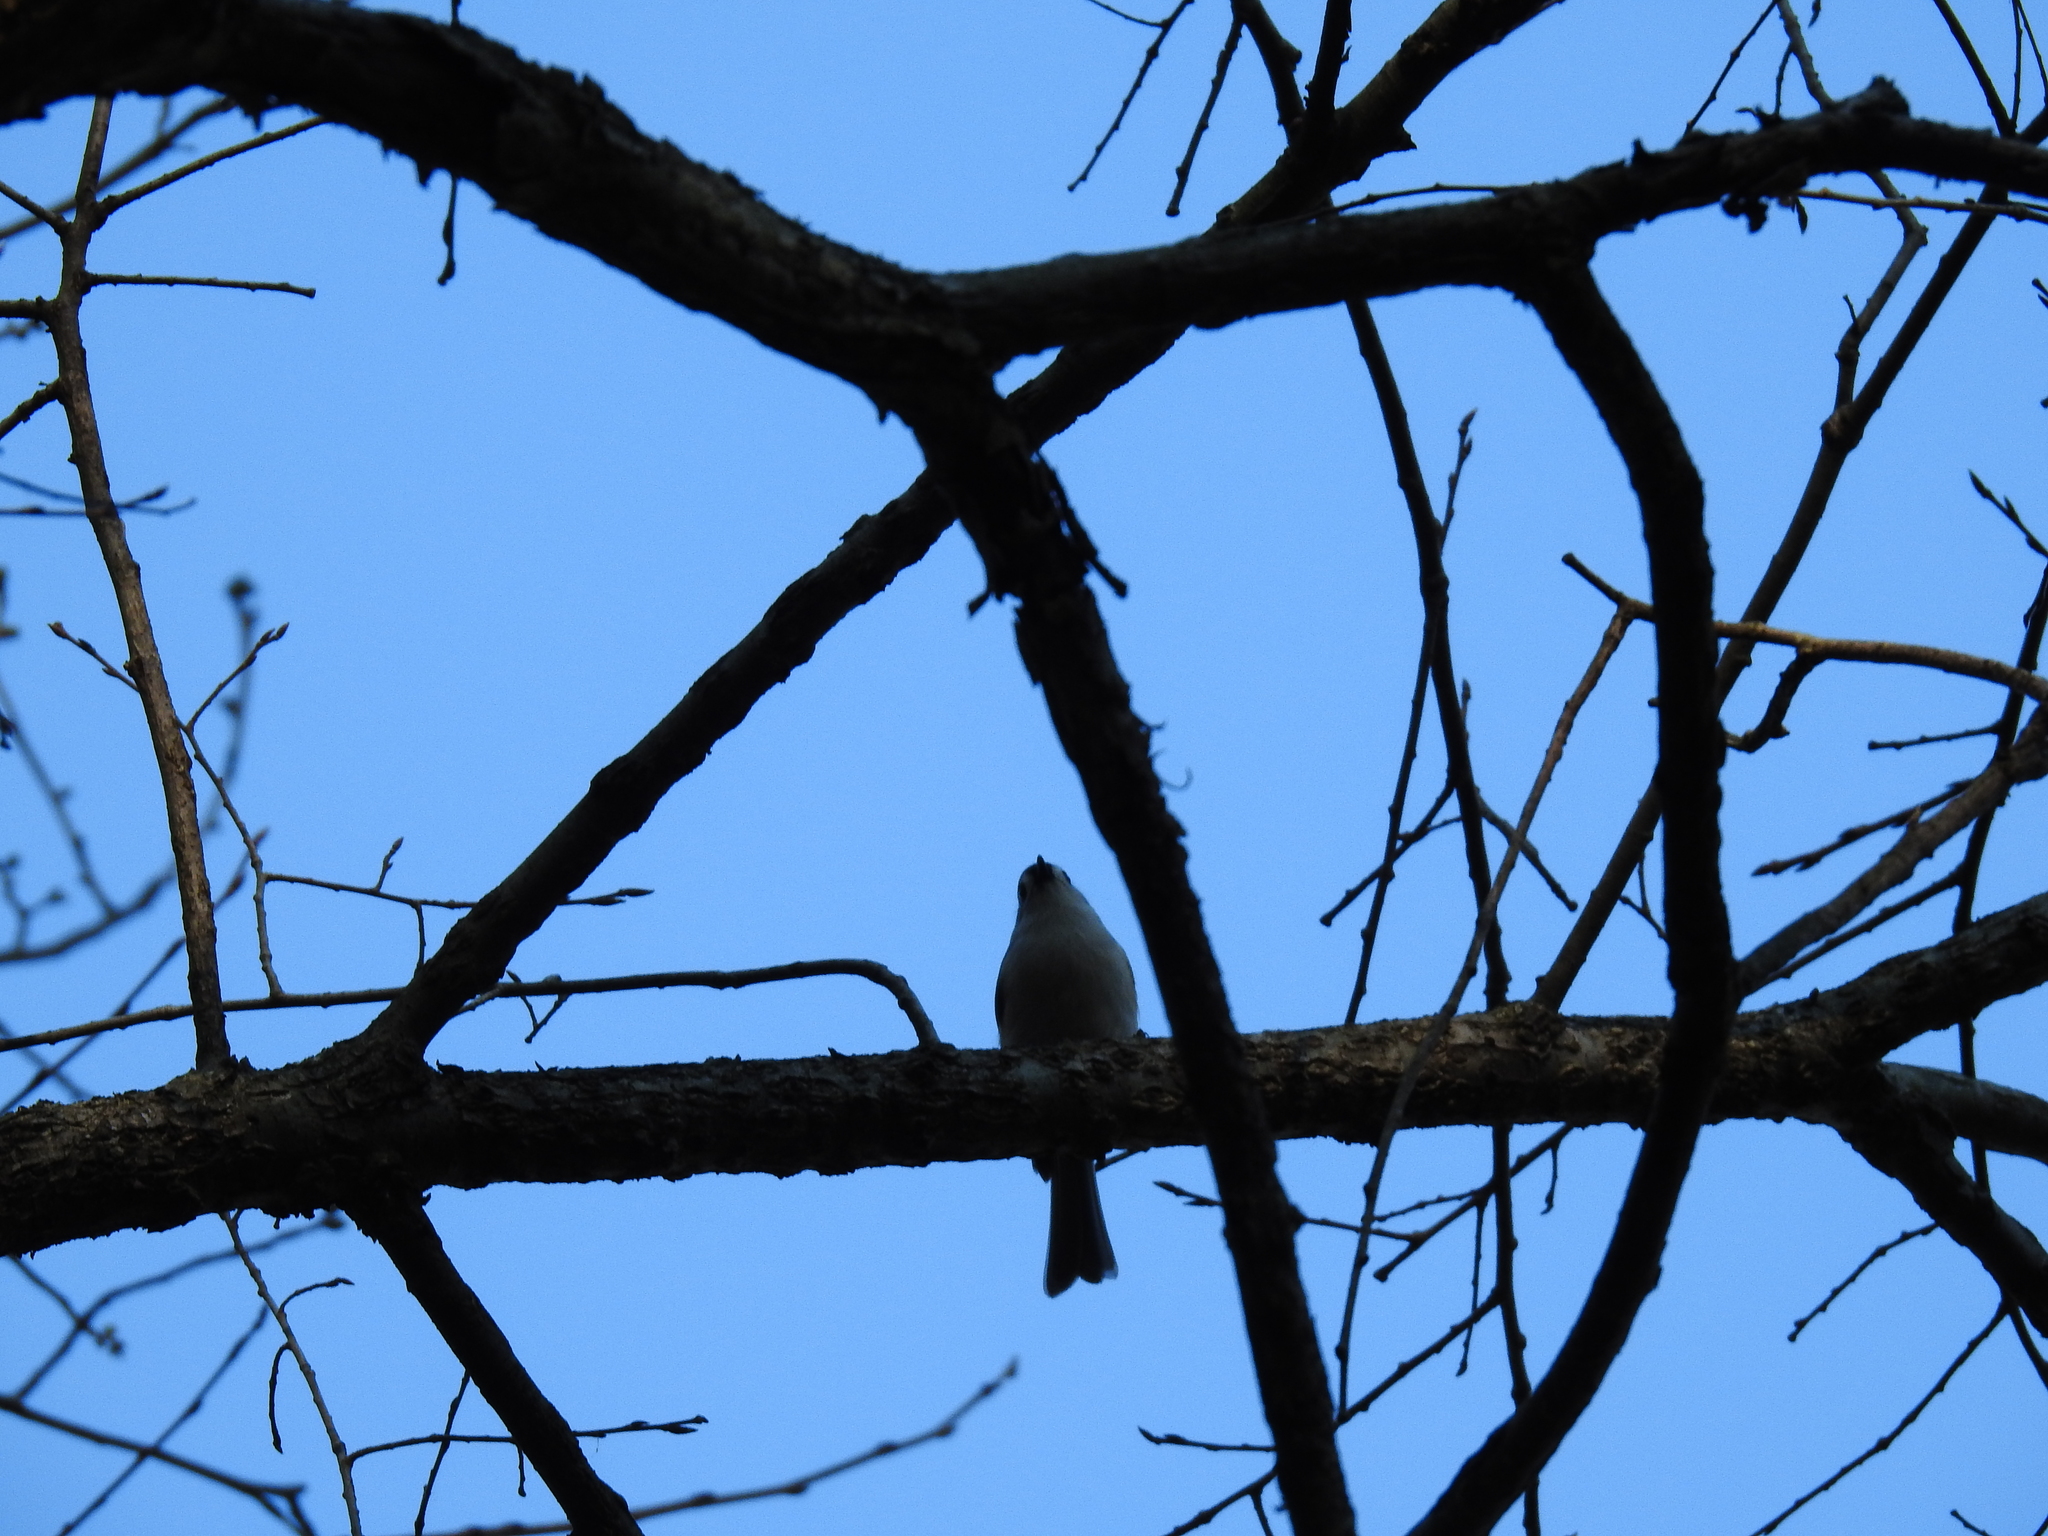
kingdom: Animalia
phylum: Chordata
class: Aves
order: Passeriformes
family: Paridae
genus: Baeolophus
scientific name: Baeolophus bicolor
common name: Tufted titmouse
